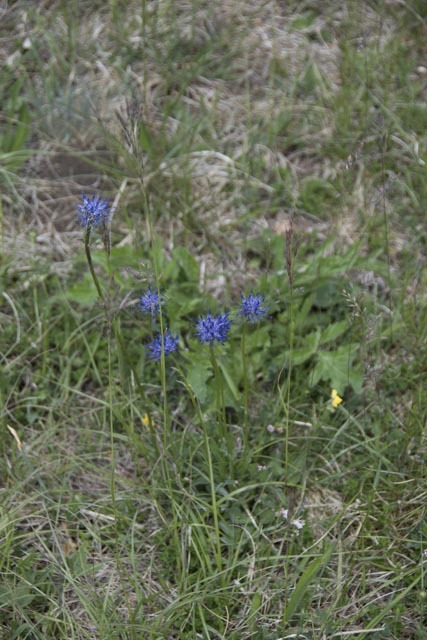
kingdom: Plantae
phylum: Tracheophyta
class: Magnoliopsida
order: Asterales
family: Campanulaceae
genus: Phyteuma
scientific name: Phyteuma orbiculare
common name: Round-headed rampion
